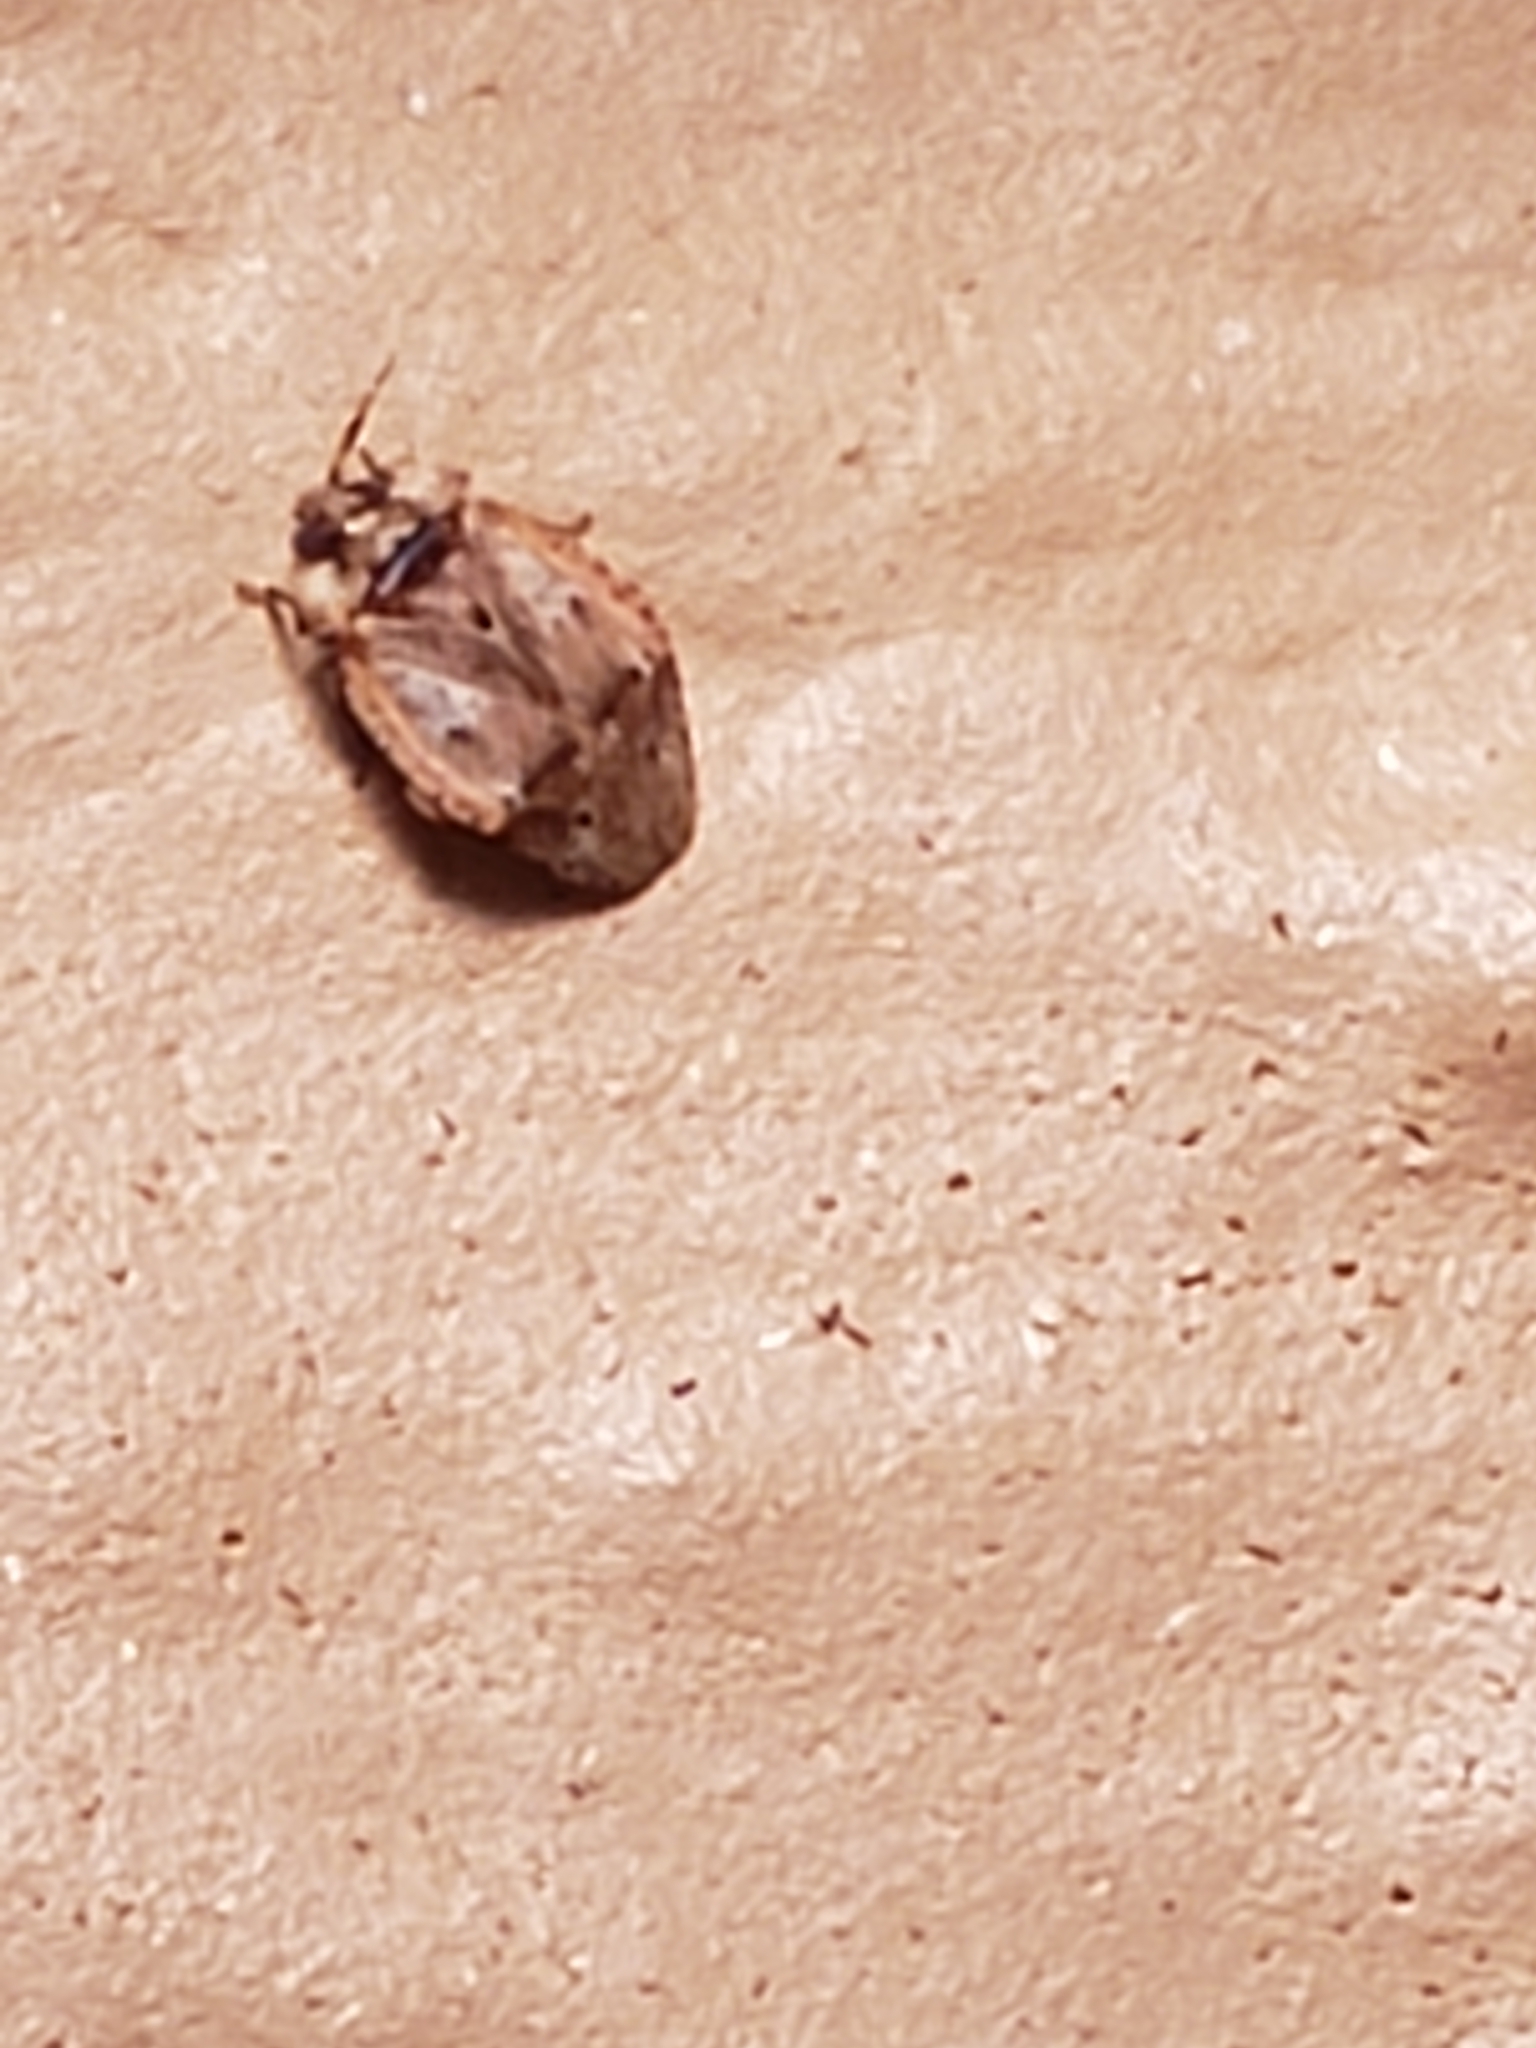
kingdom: Animalia
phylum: Arthropoda
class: Insecta
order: Hemiptera
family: Miridae
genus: Diphleps
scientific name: Diphleps unica
